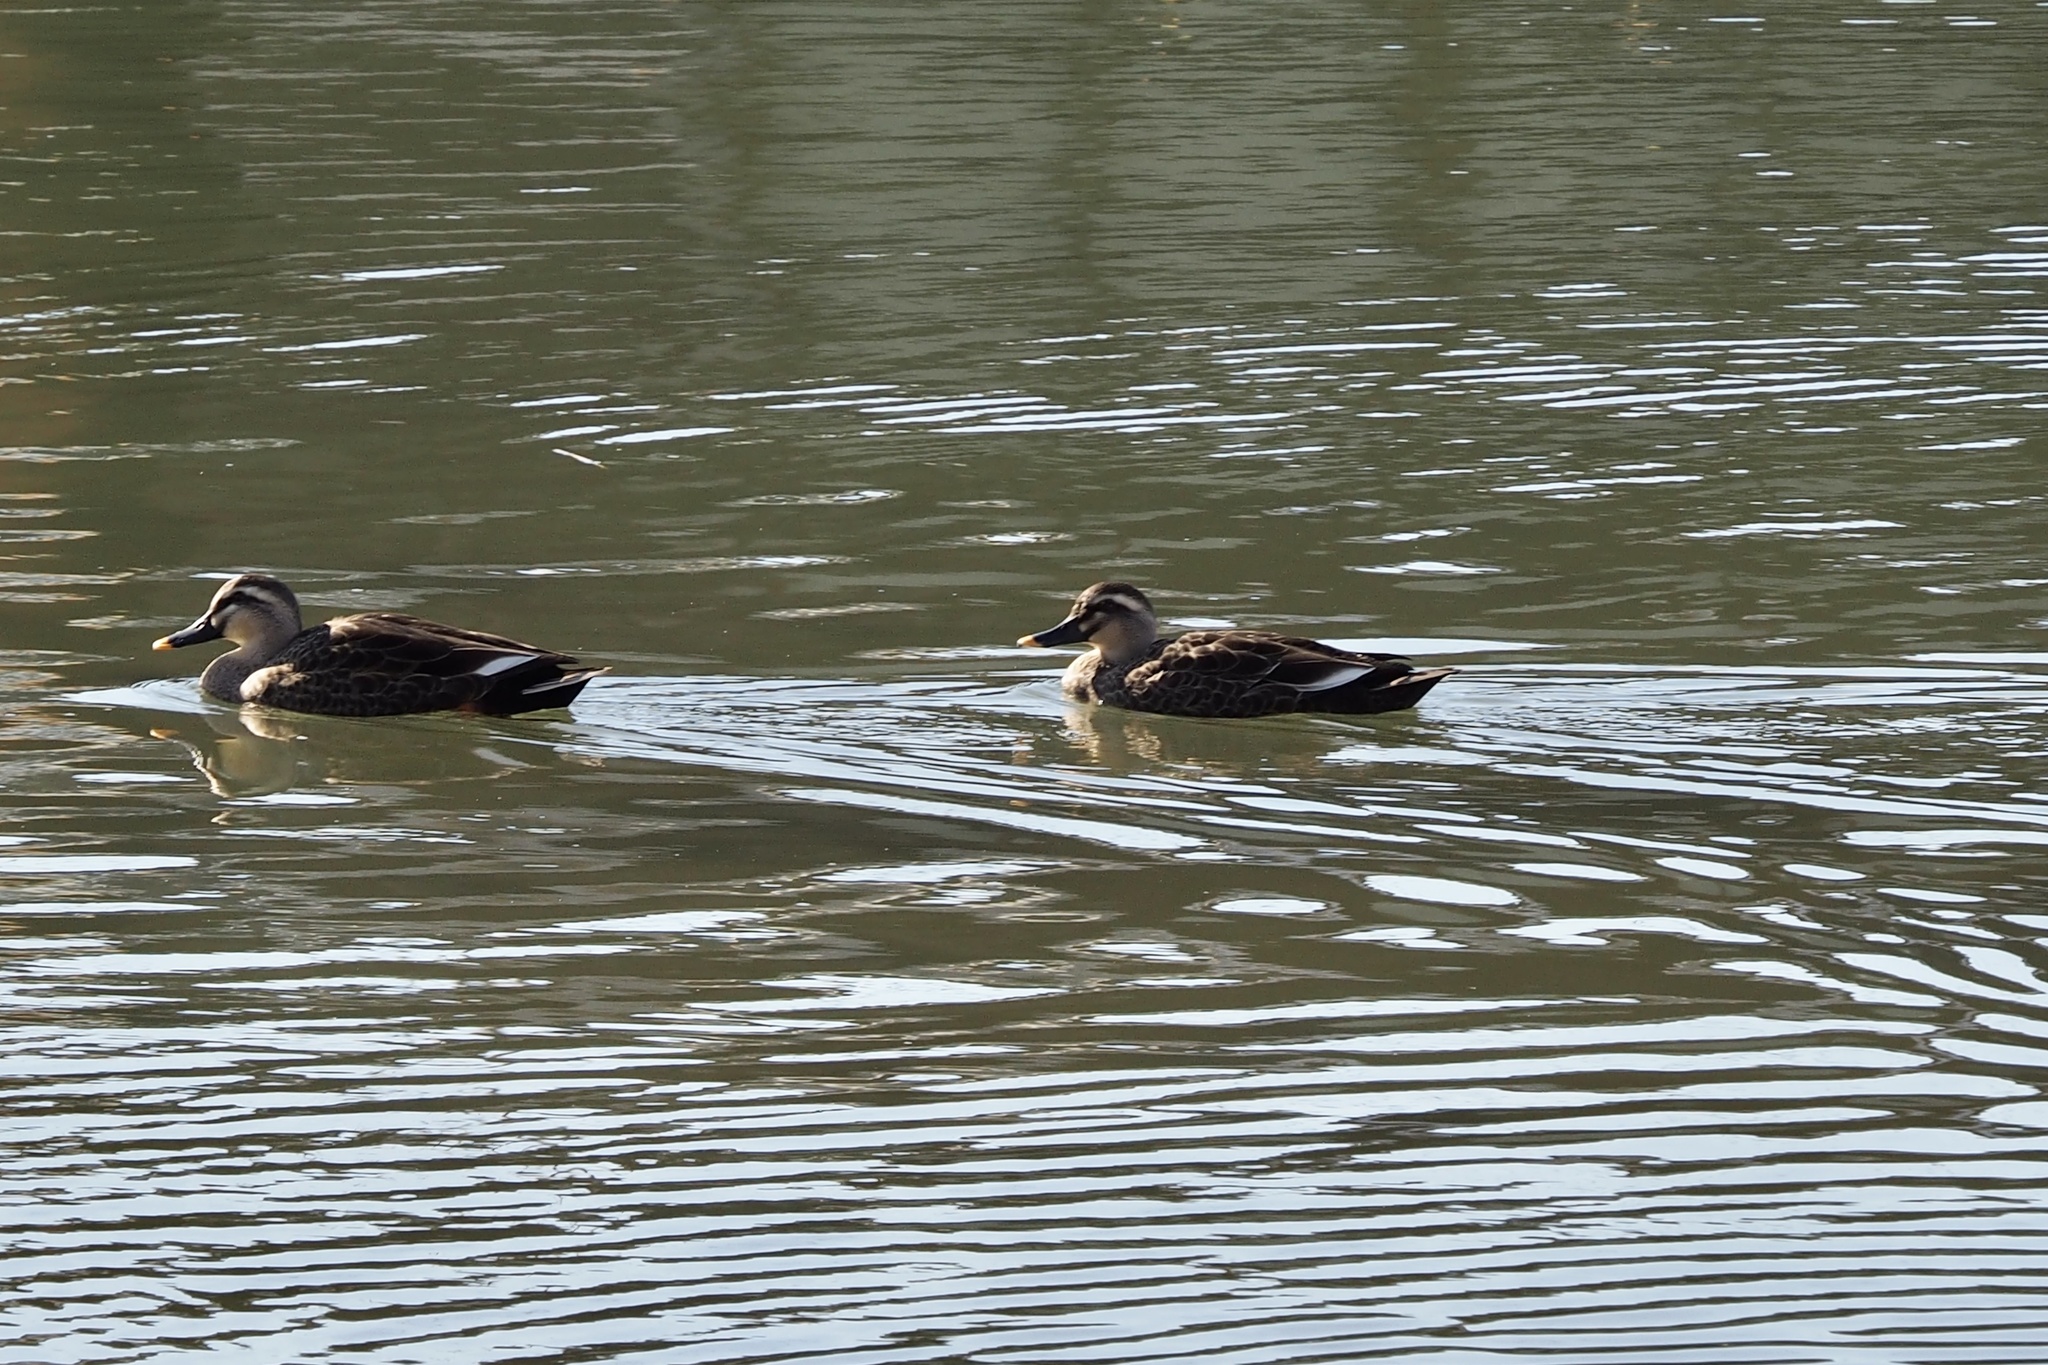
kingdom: Animalia
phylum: Chordata
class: Aves
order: Anseriformes
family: Anatidae
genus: Anas
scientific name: Anas zonorhyncha
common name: Eastern spot-billed duck
